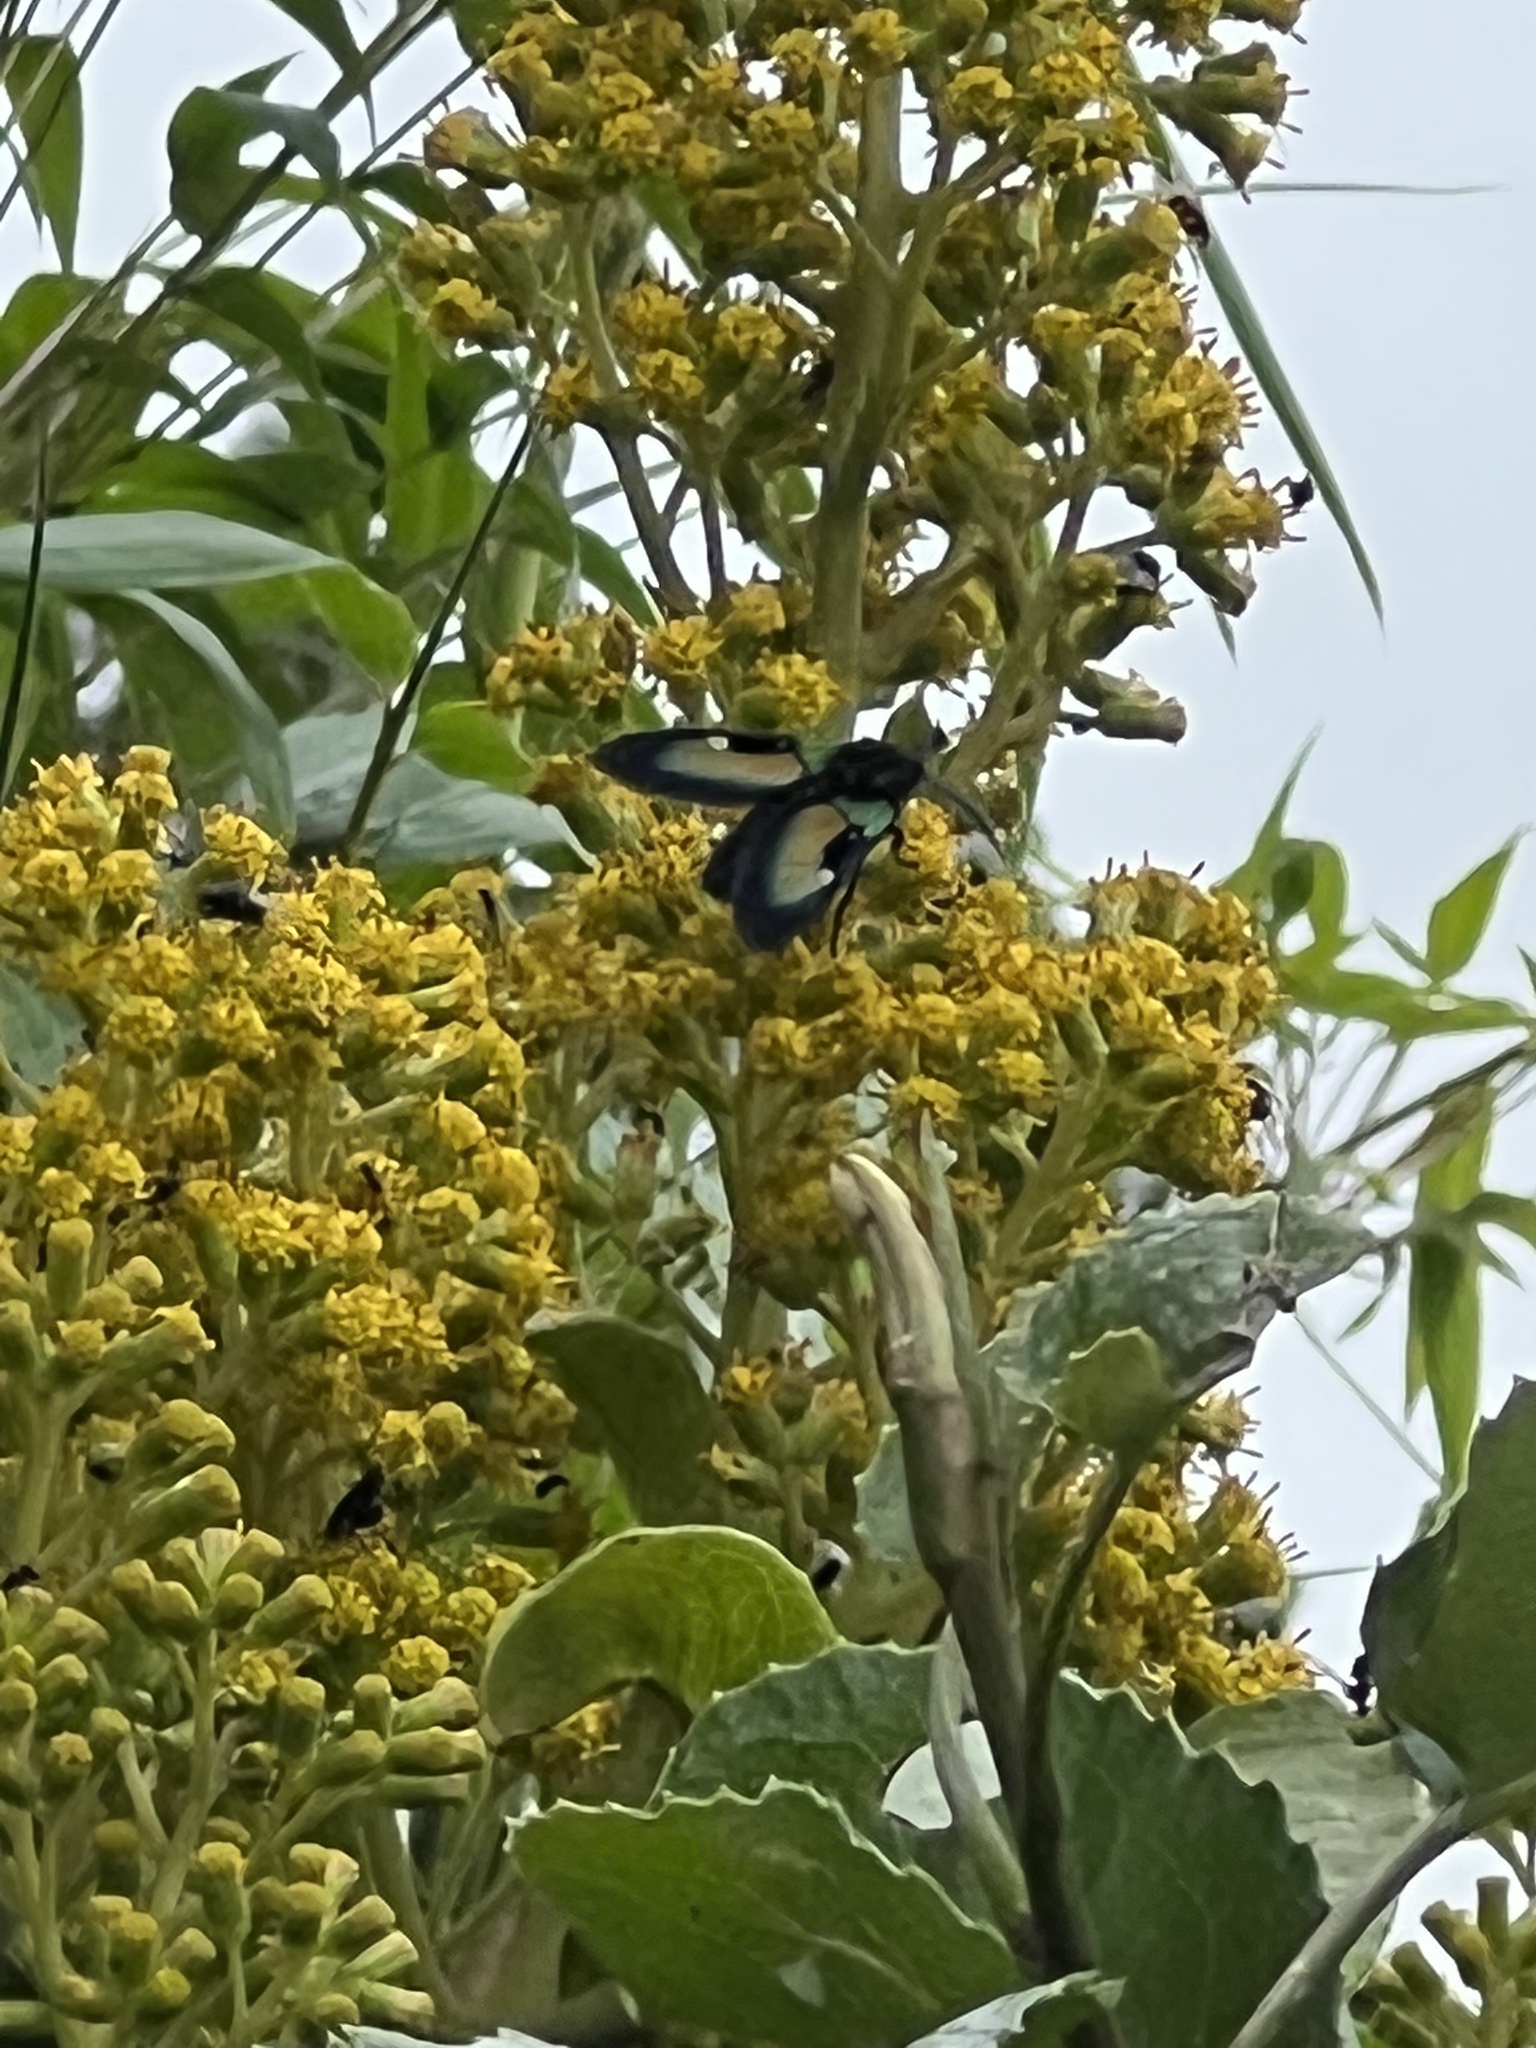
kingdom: Animalia
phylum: Arthropoda
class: Insecta
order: Lepidoptera
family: Erebidae
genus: Chrysocale
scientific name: Chrysocale ignita
